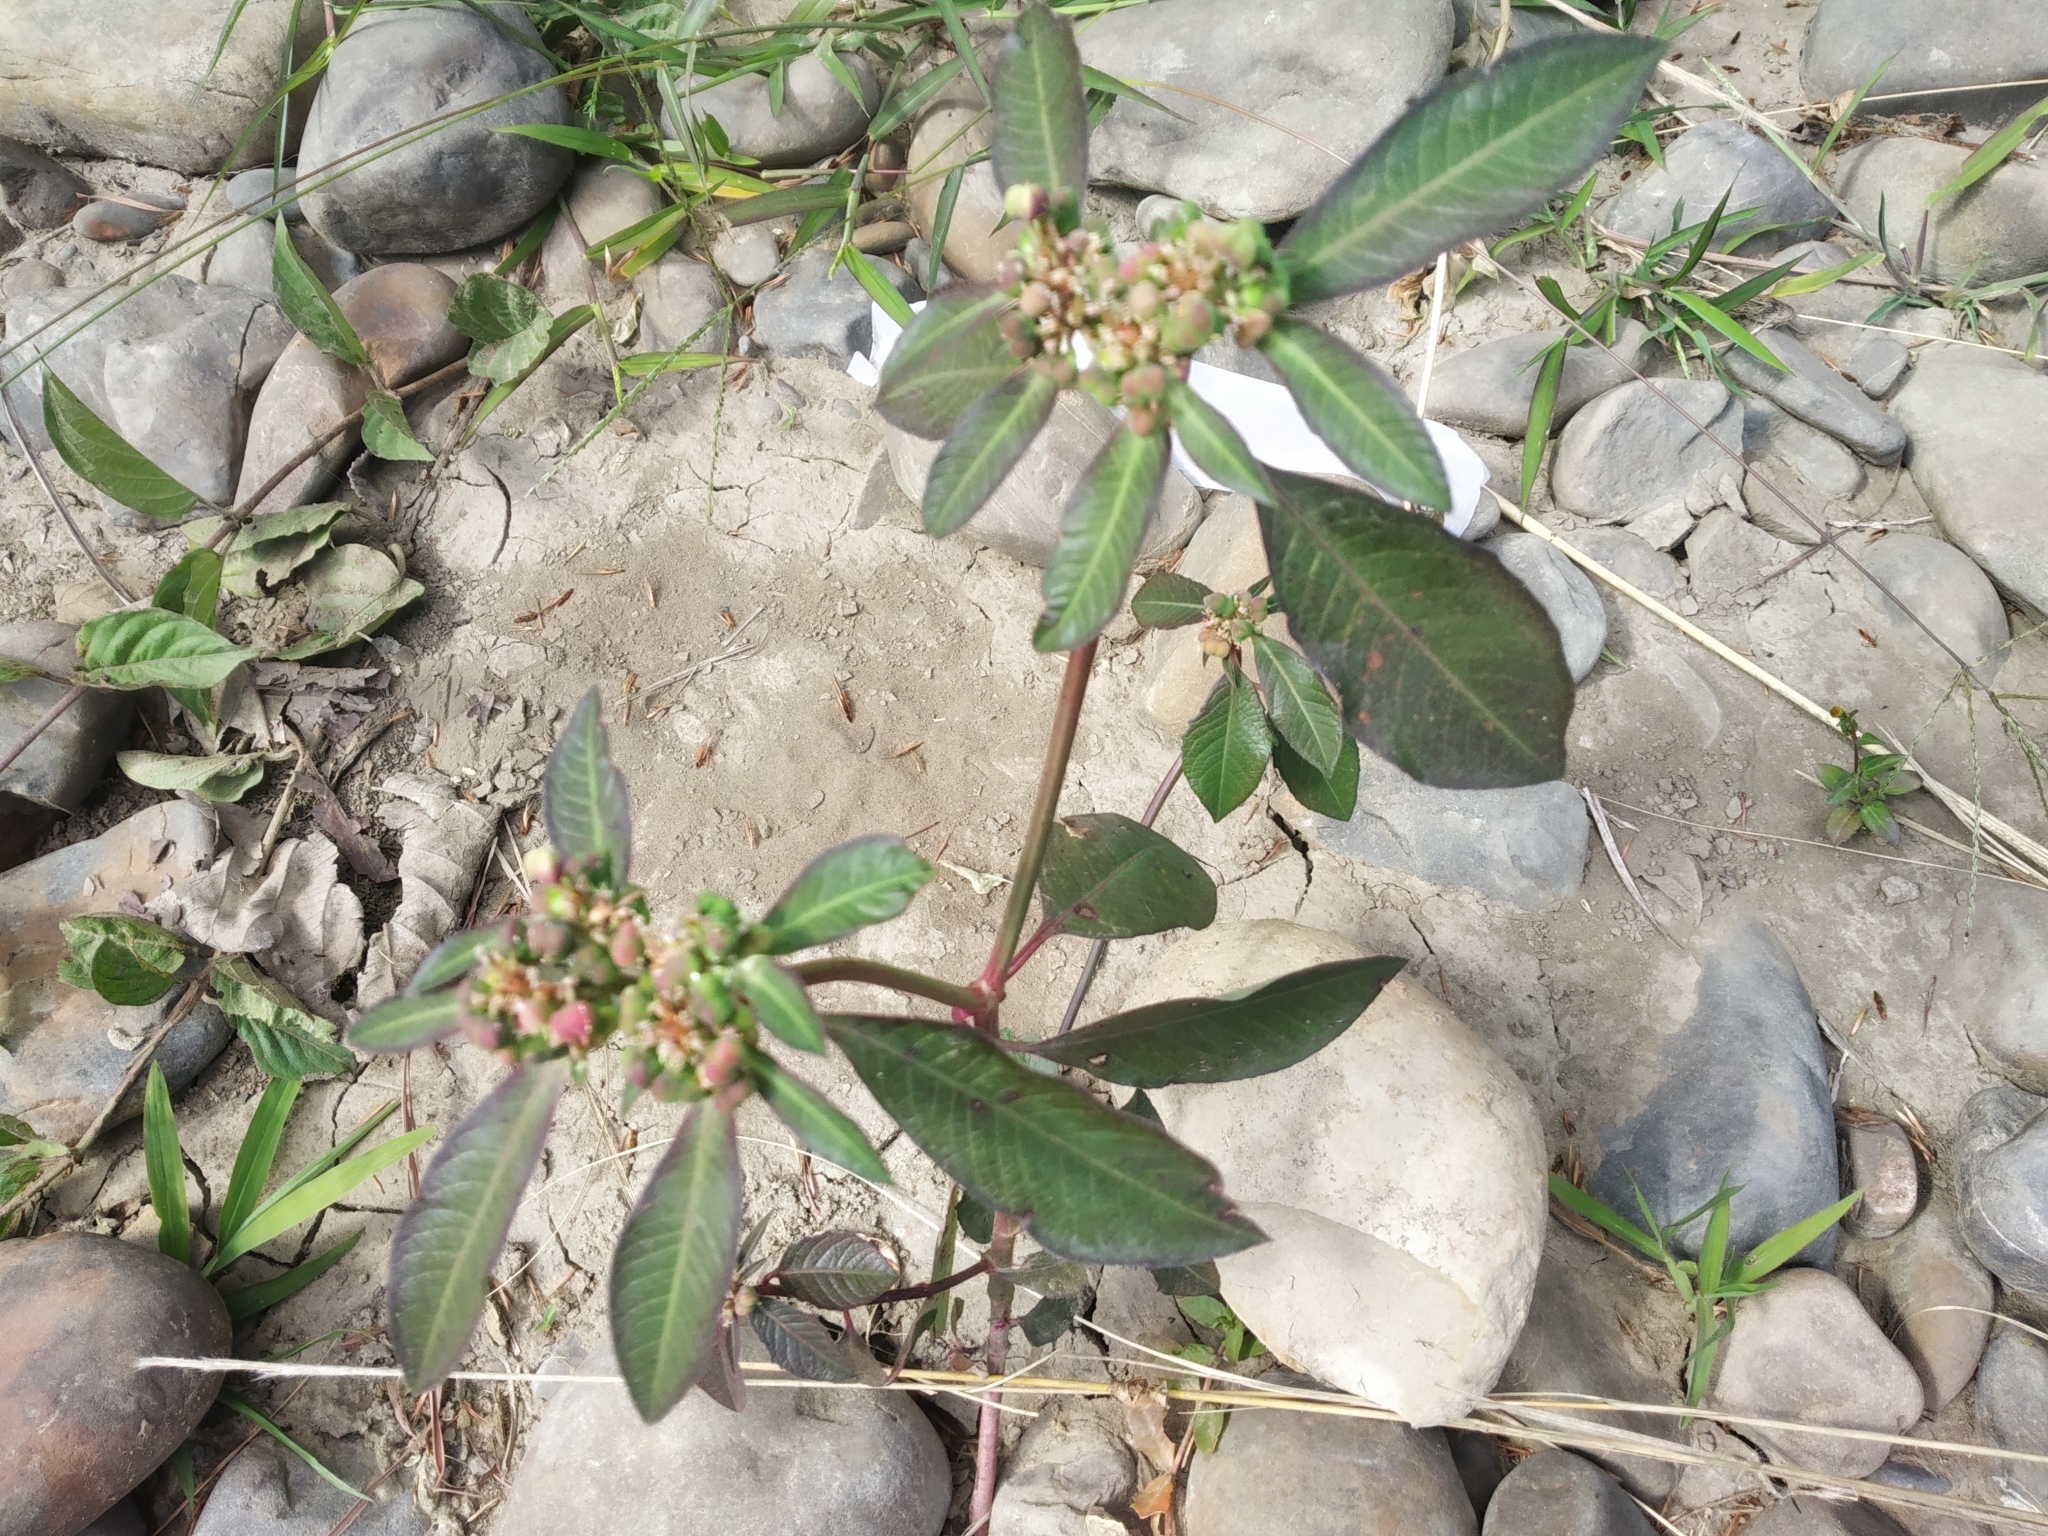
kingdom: Plantae
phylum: Tracheophyta
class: Magnoliopsida
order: Malpighiales
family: Euphorbiaceae
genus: Euphorbia
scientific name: Euphorbia heterophylla
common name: Mexican fireplant
